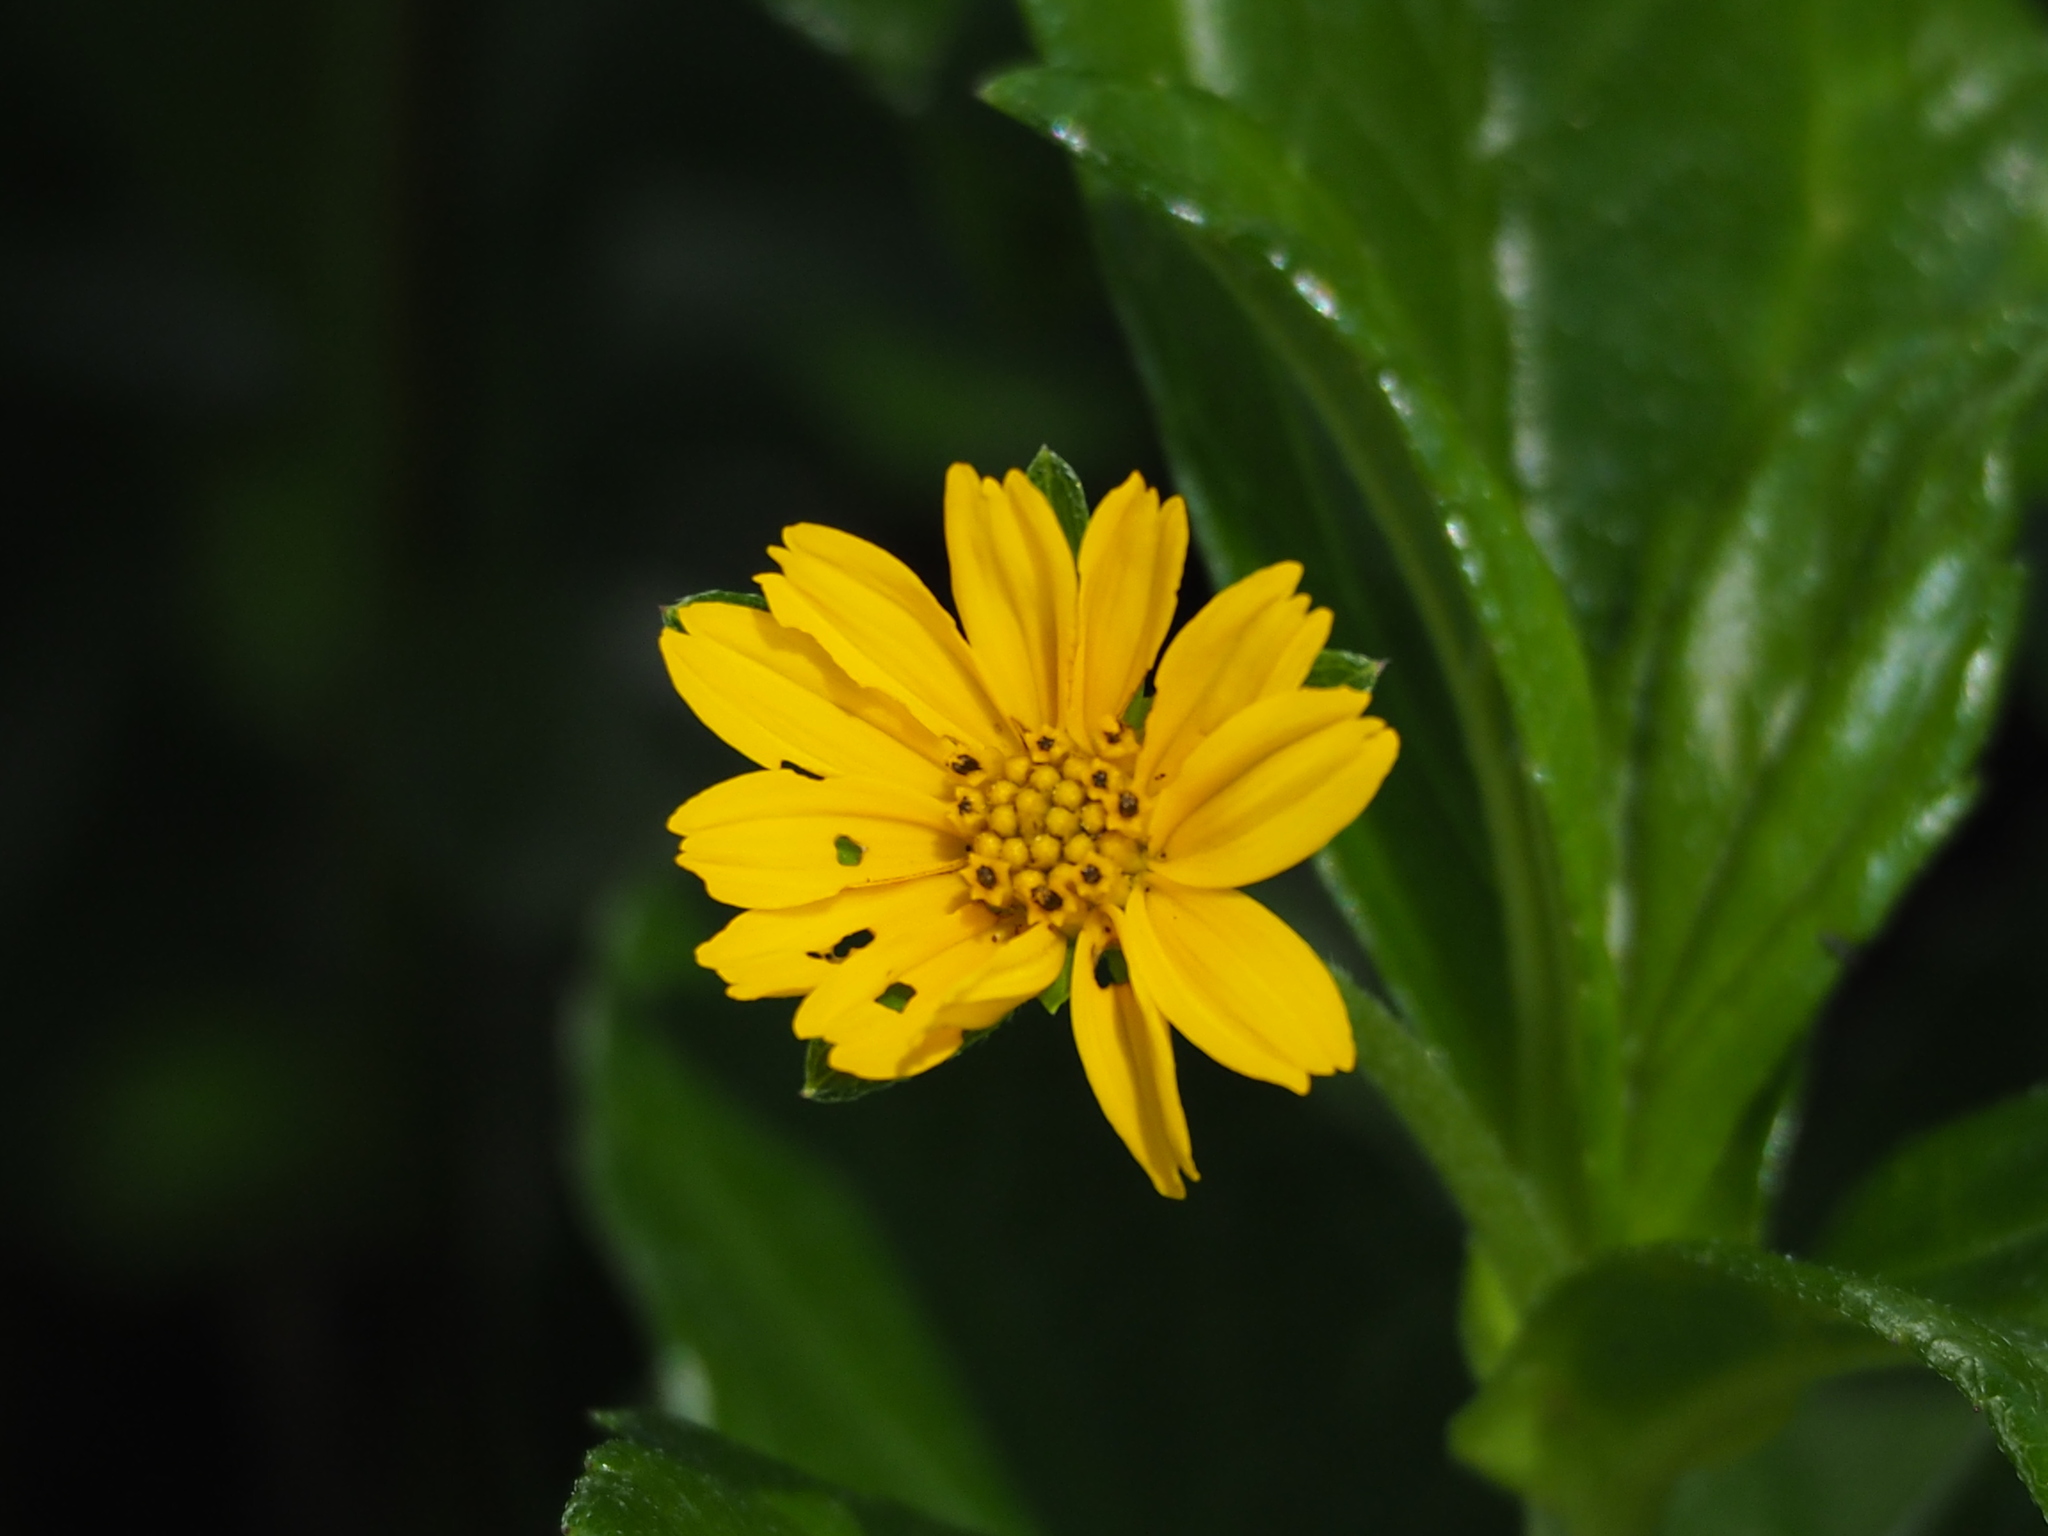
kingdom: Plantae
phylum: Tracheophyta
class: Magnoliopsida
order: Asterales
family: Asteraceae
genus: Sphagneticola
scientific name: Sphagneticola trilobata
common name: Bay biscayne creeping-oxeye
